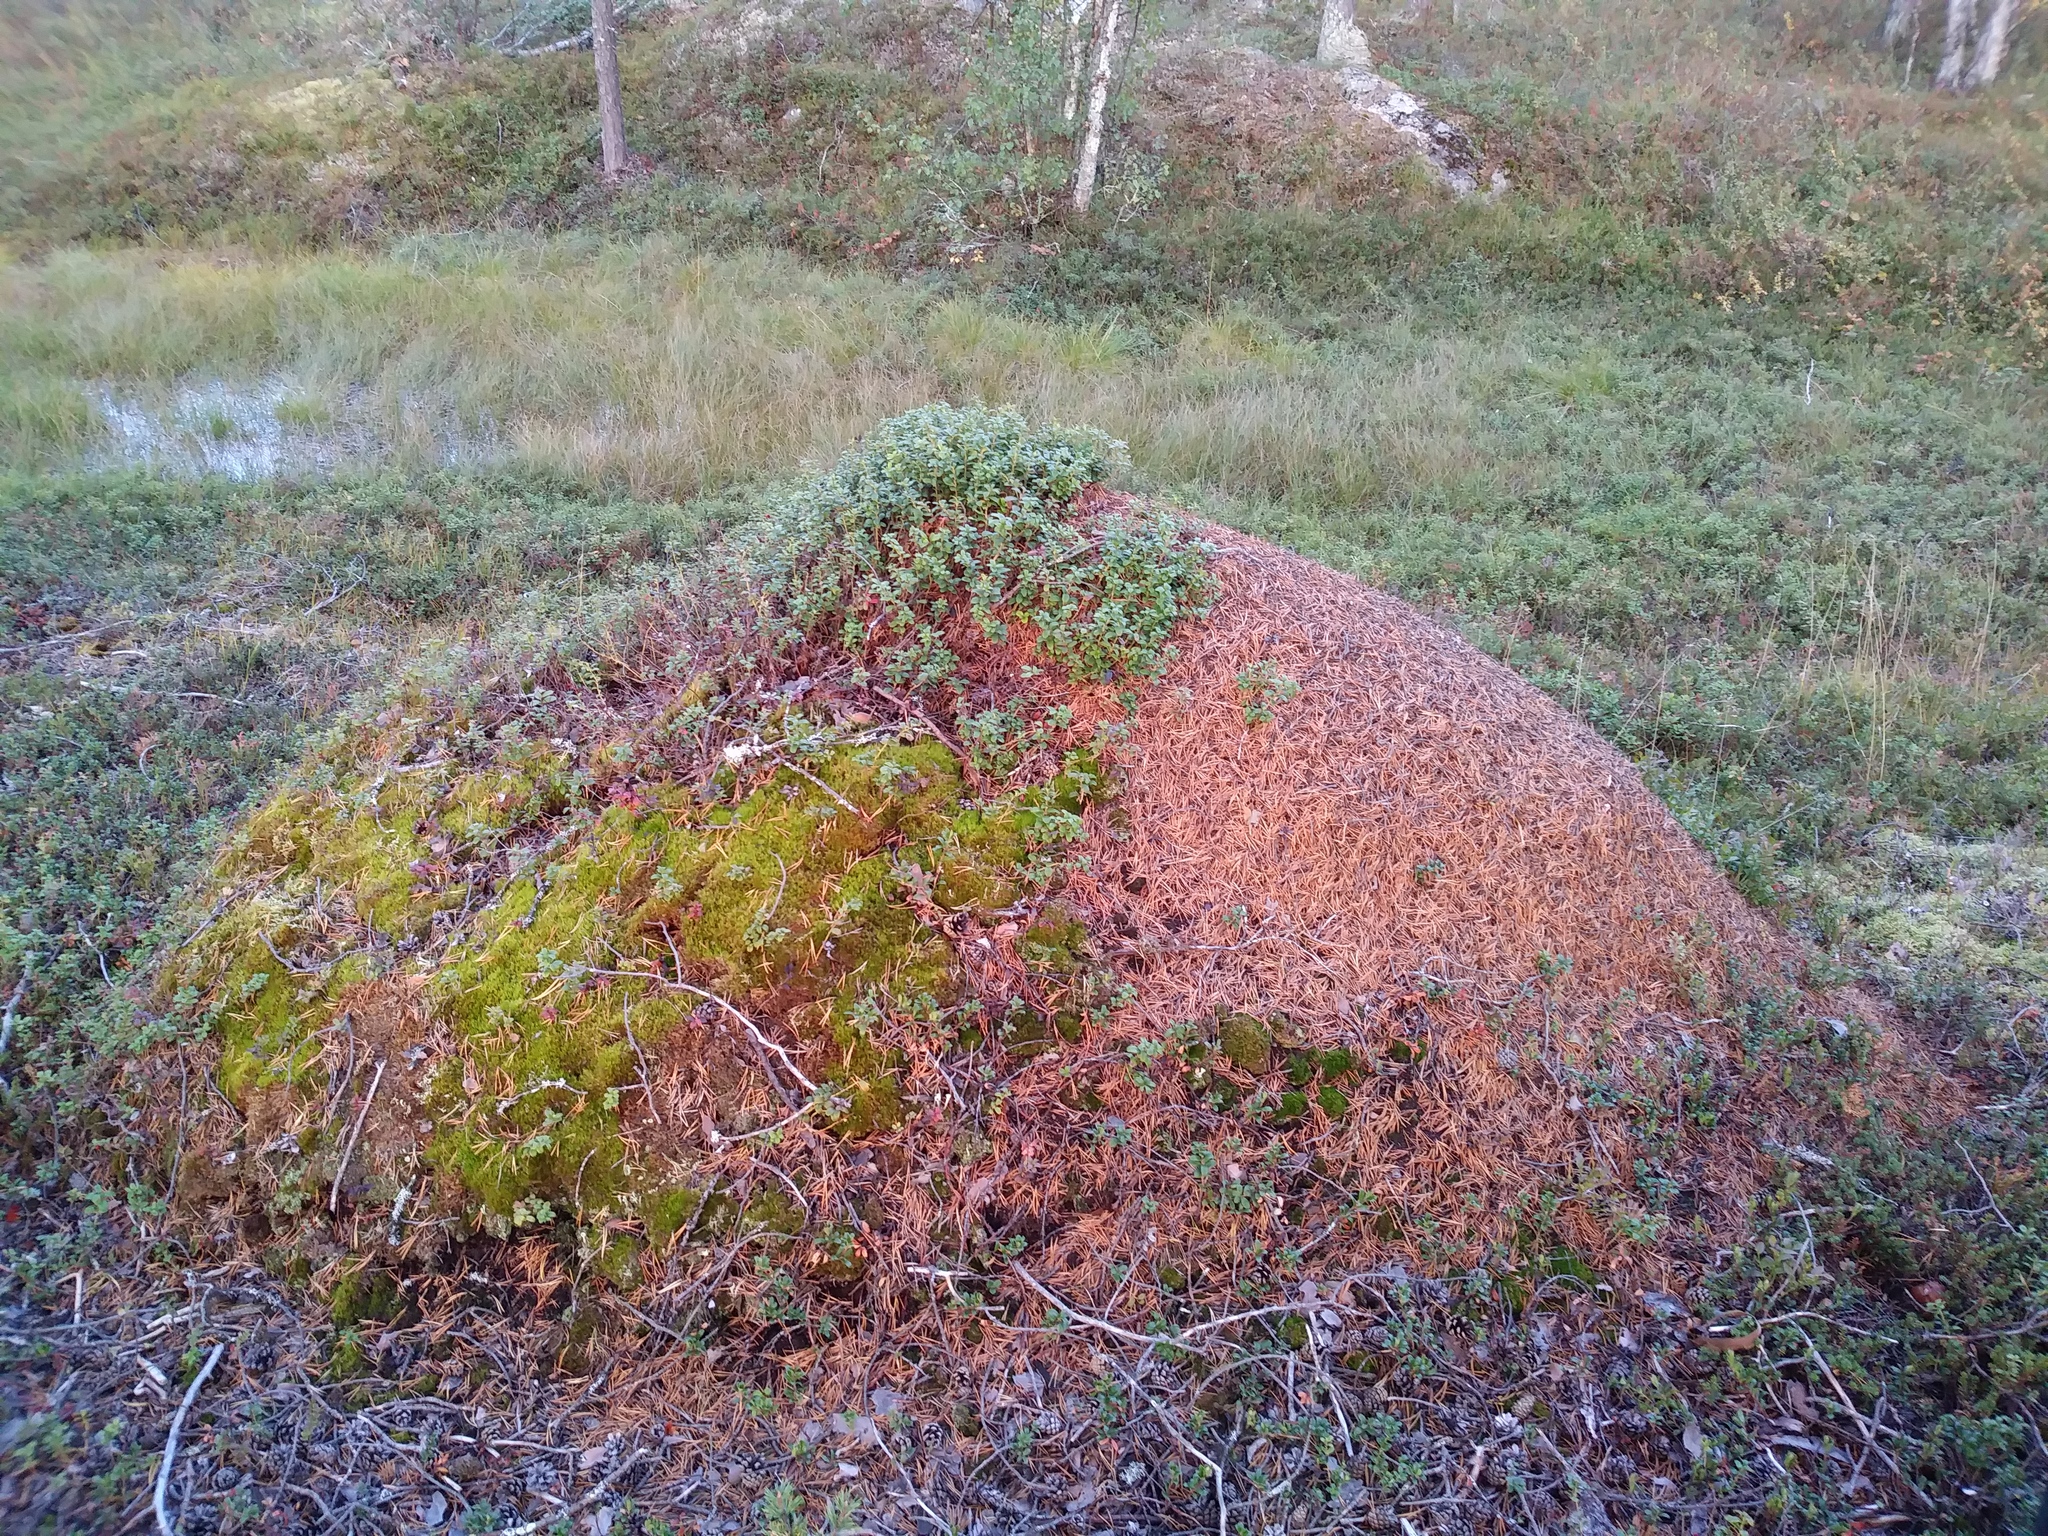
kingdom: Animalia
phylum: Arthropoda
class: Insecta
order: Hymenoptera
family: Formicidae
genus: Formica
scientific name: Formica rufa
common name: Red wood ant
